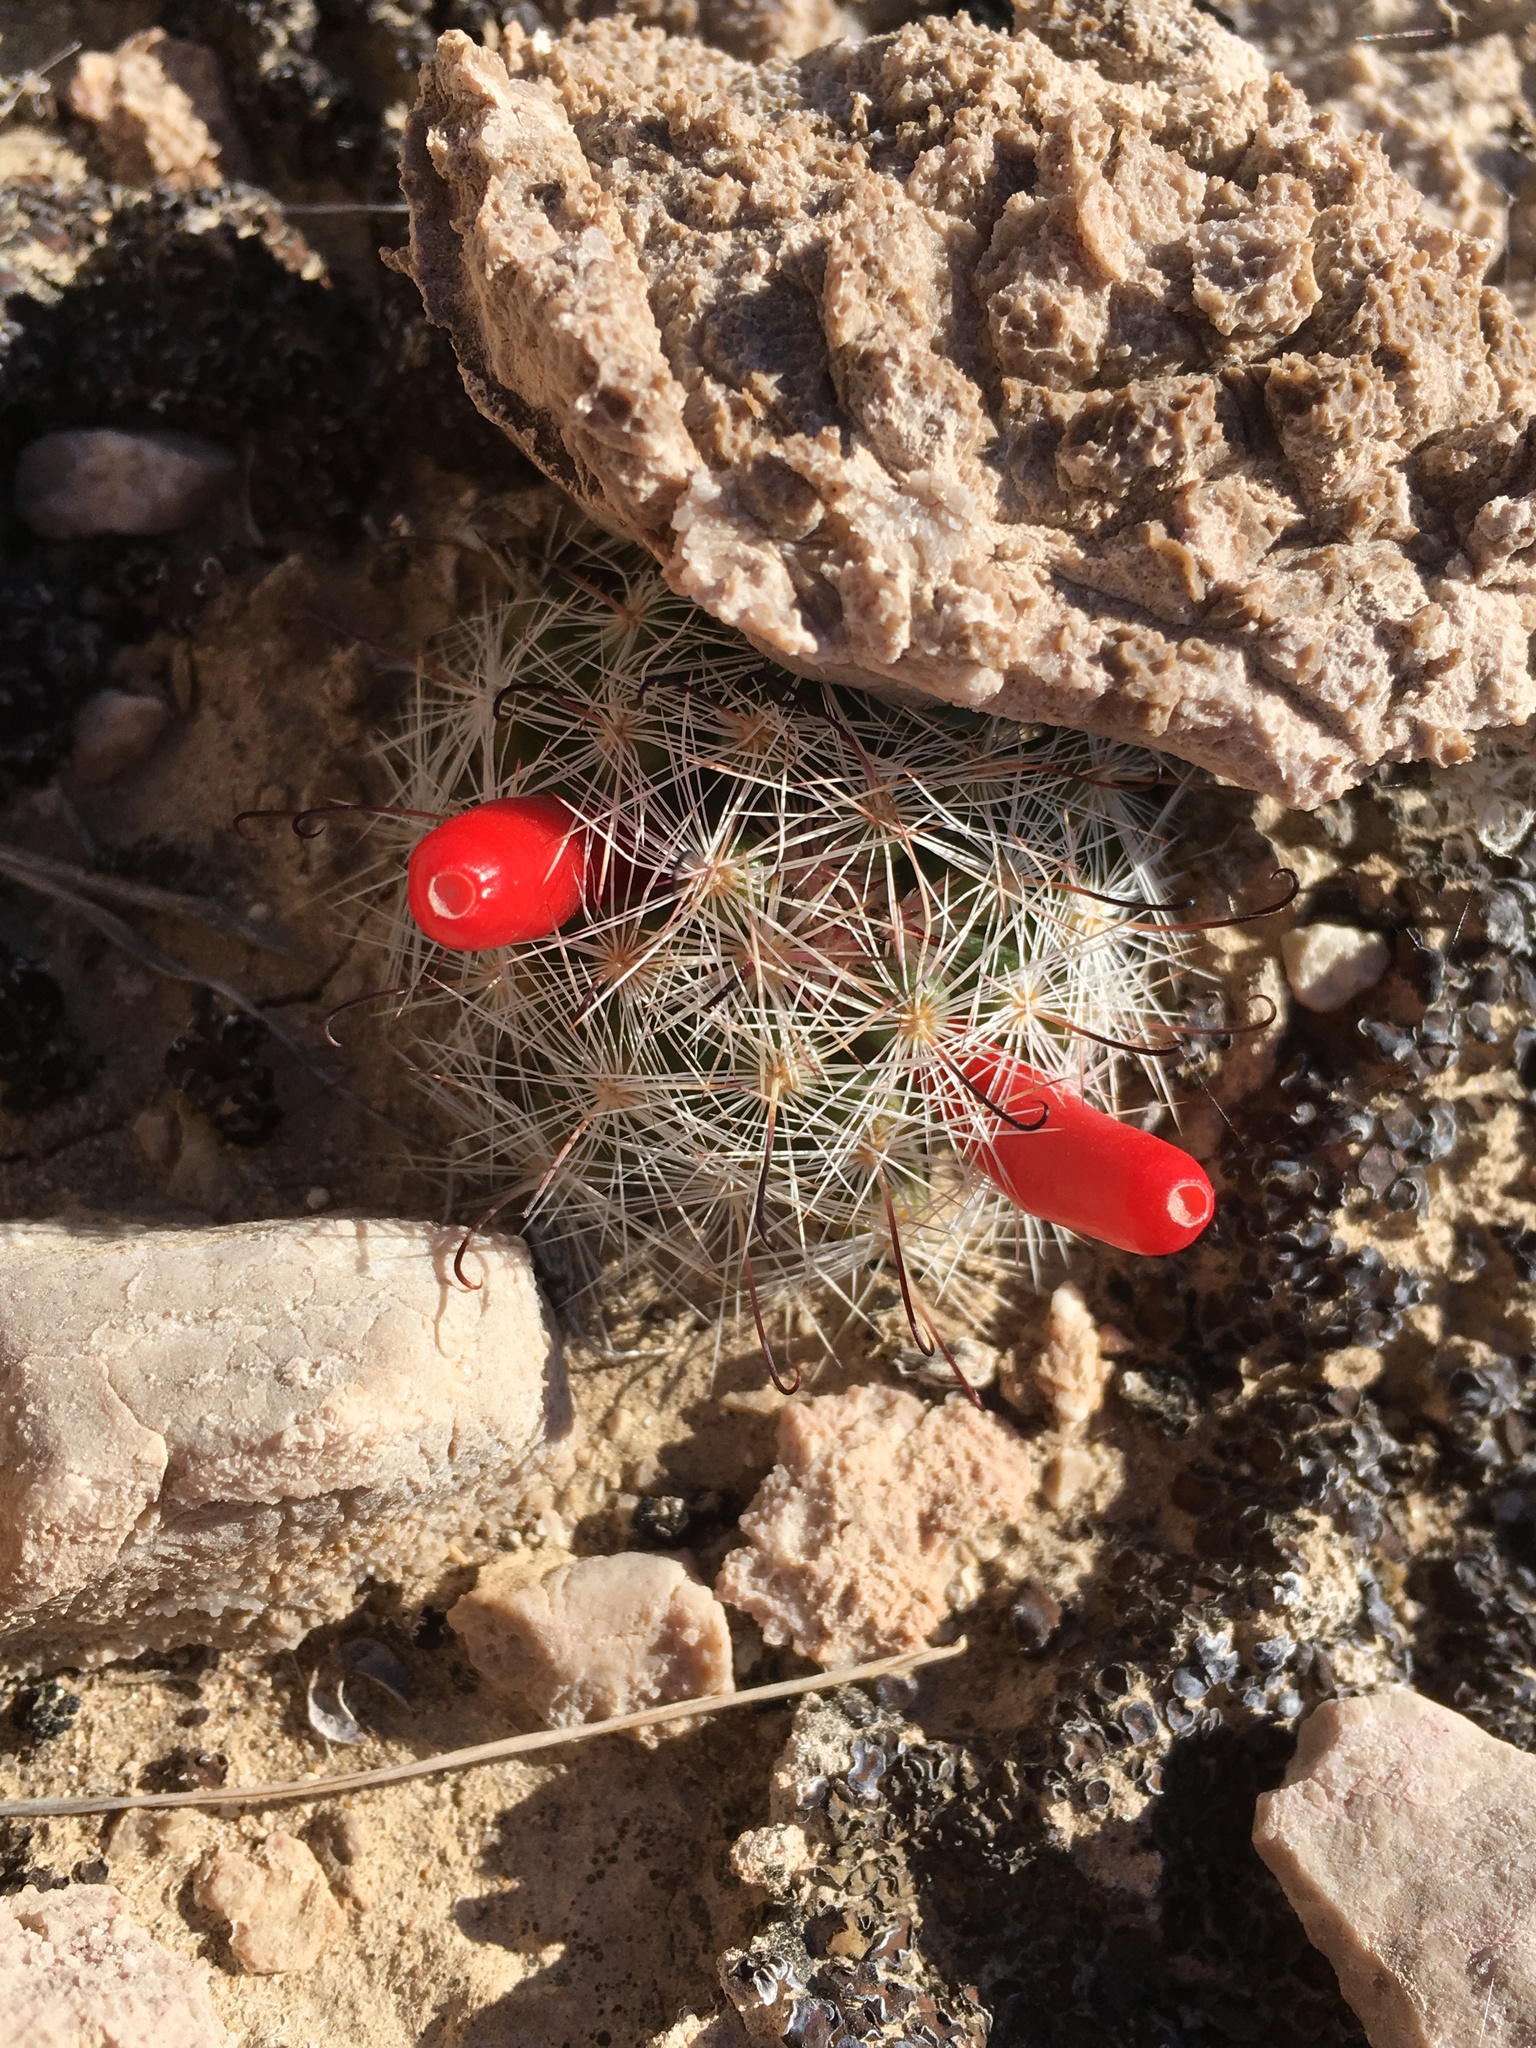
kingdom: Plantae
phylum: Tracheophyta
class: Magnoliopsida
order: Caryophyllales
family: Cactaceae
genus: Cochemiea
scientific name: Cochemiea tetrancistra
